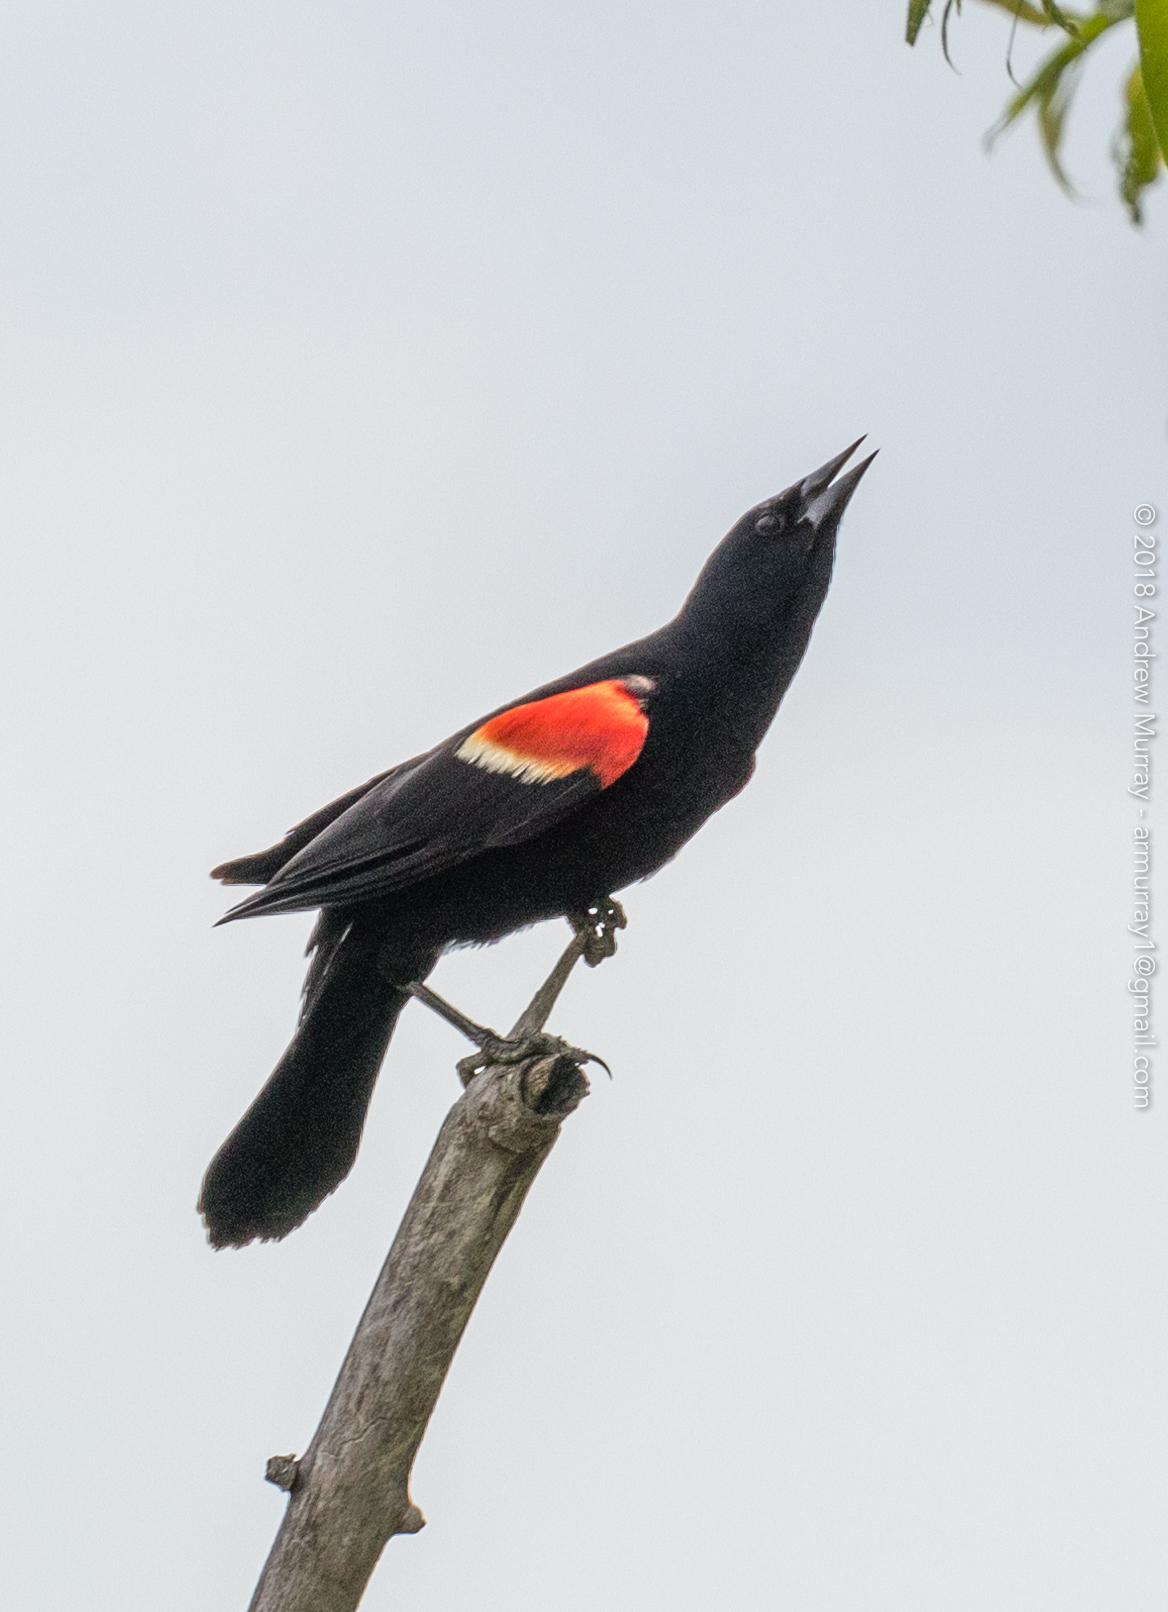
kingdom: Animalia
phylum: Chordata
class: Aves
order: Passeriformes
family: Icteridae
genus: Agelaius
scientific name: Agelaius phoeniceus
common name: Red-winged blackbird
